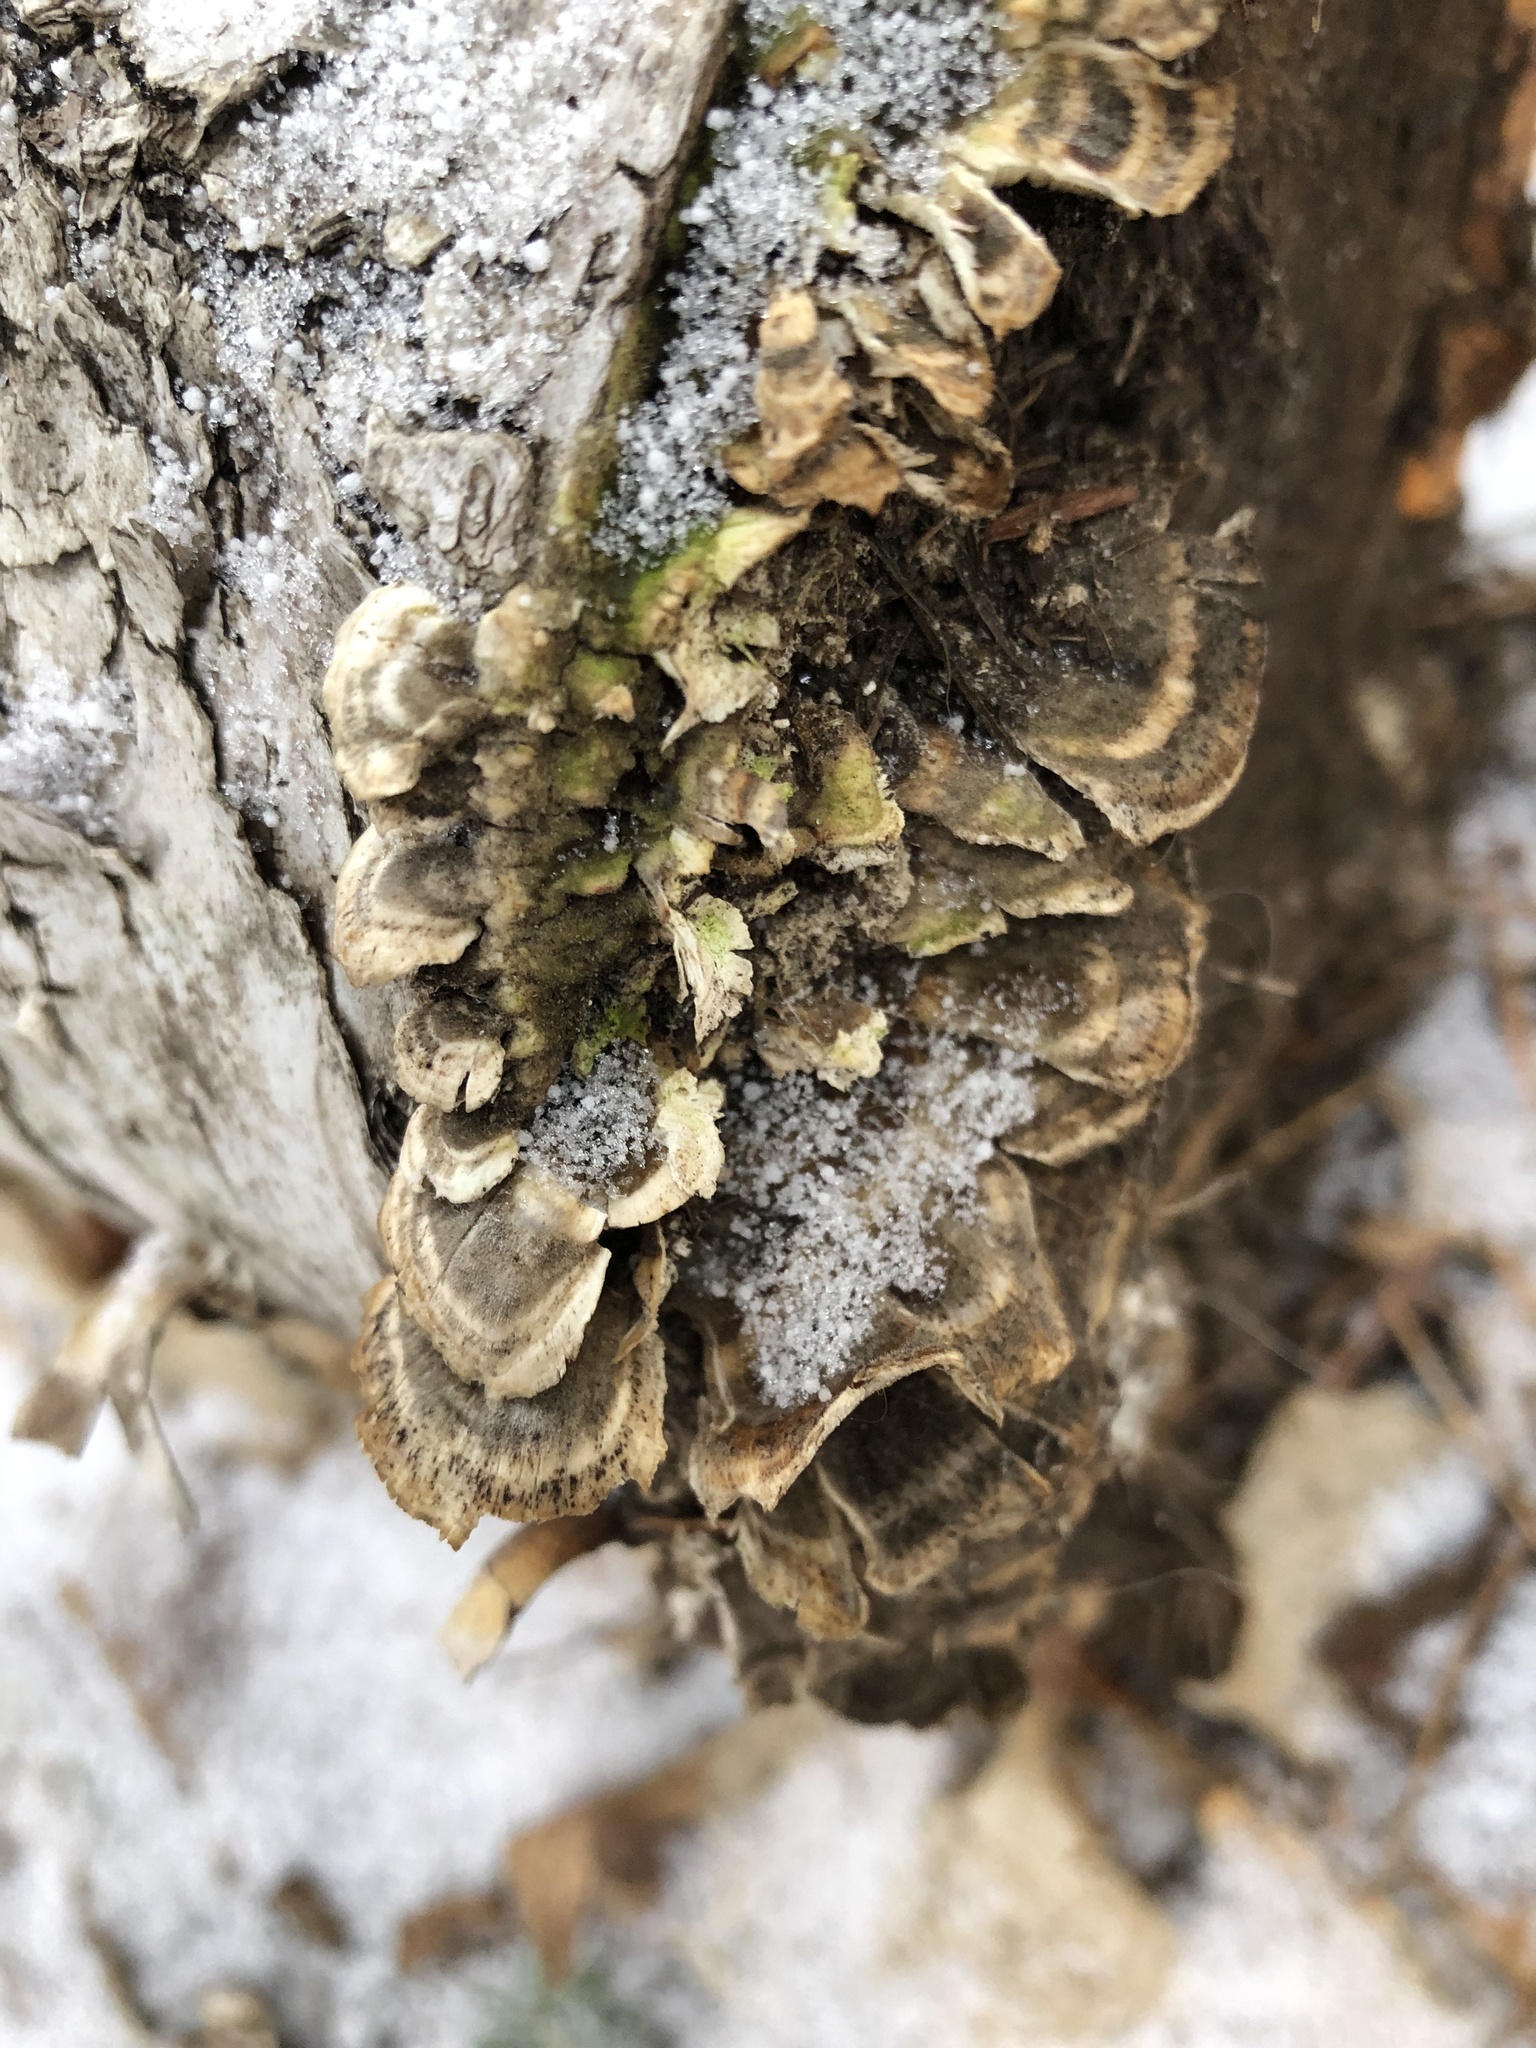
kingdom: Fungi
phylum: Basidiomycota
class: Agaricomycetes
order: Polyporales
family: Polyporaceae
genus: Trametes
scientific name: Trametes versicolor
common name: Turkeytail
